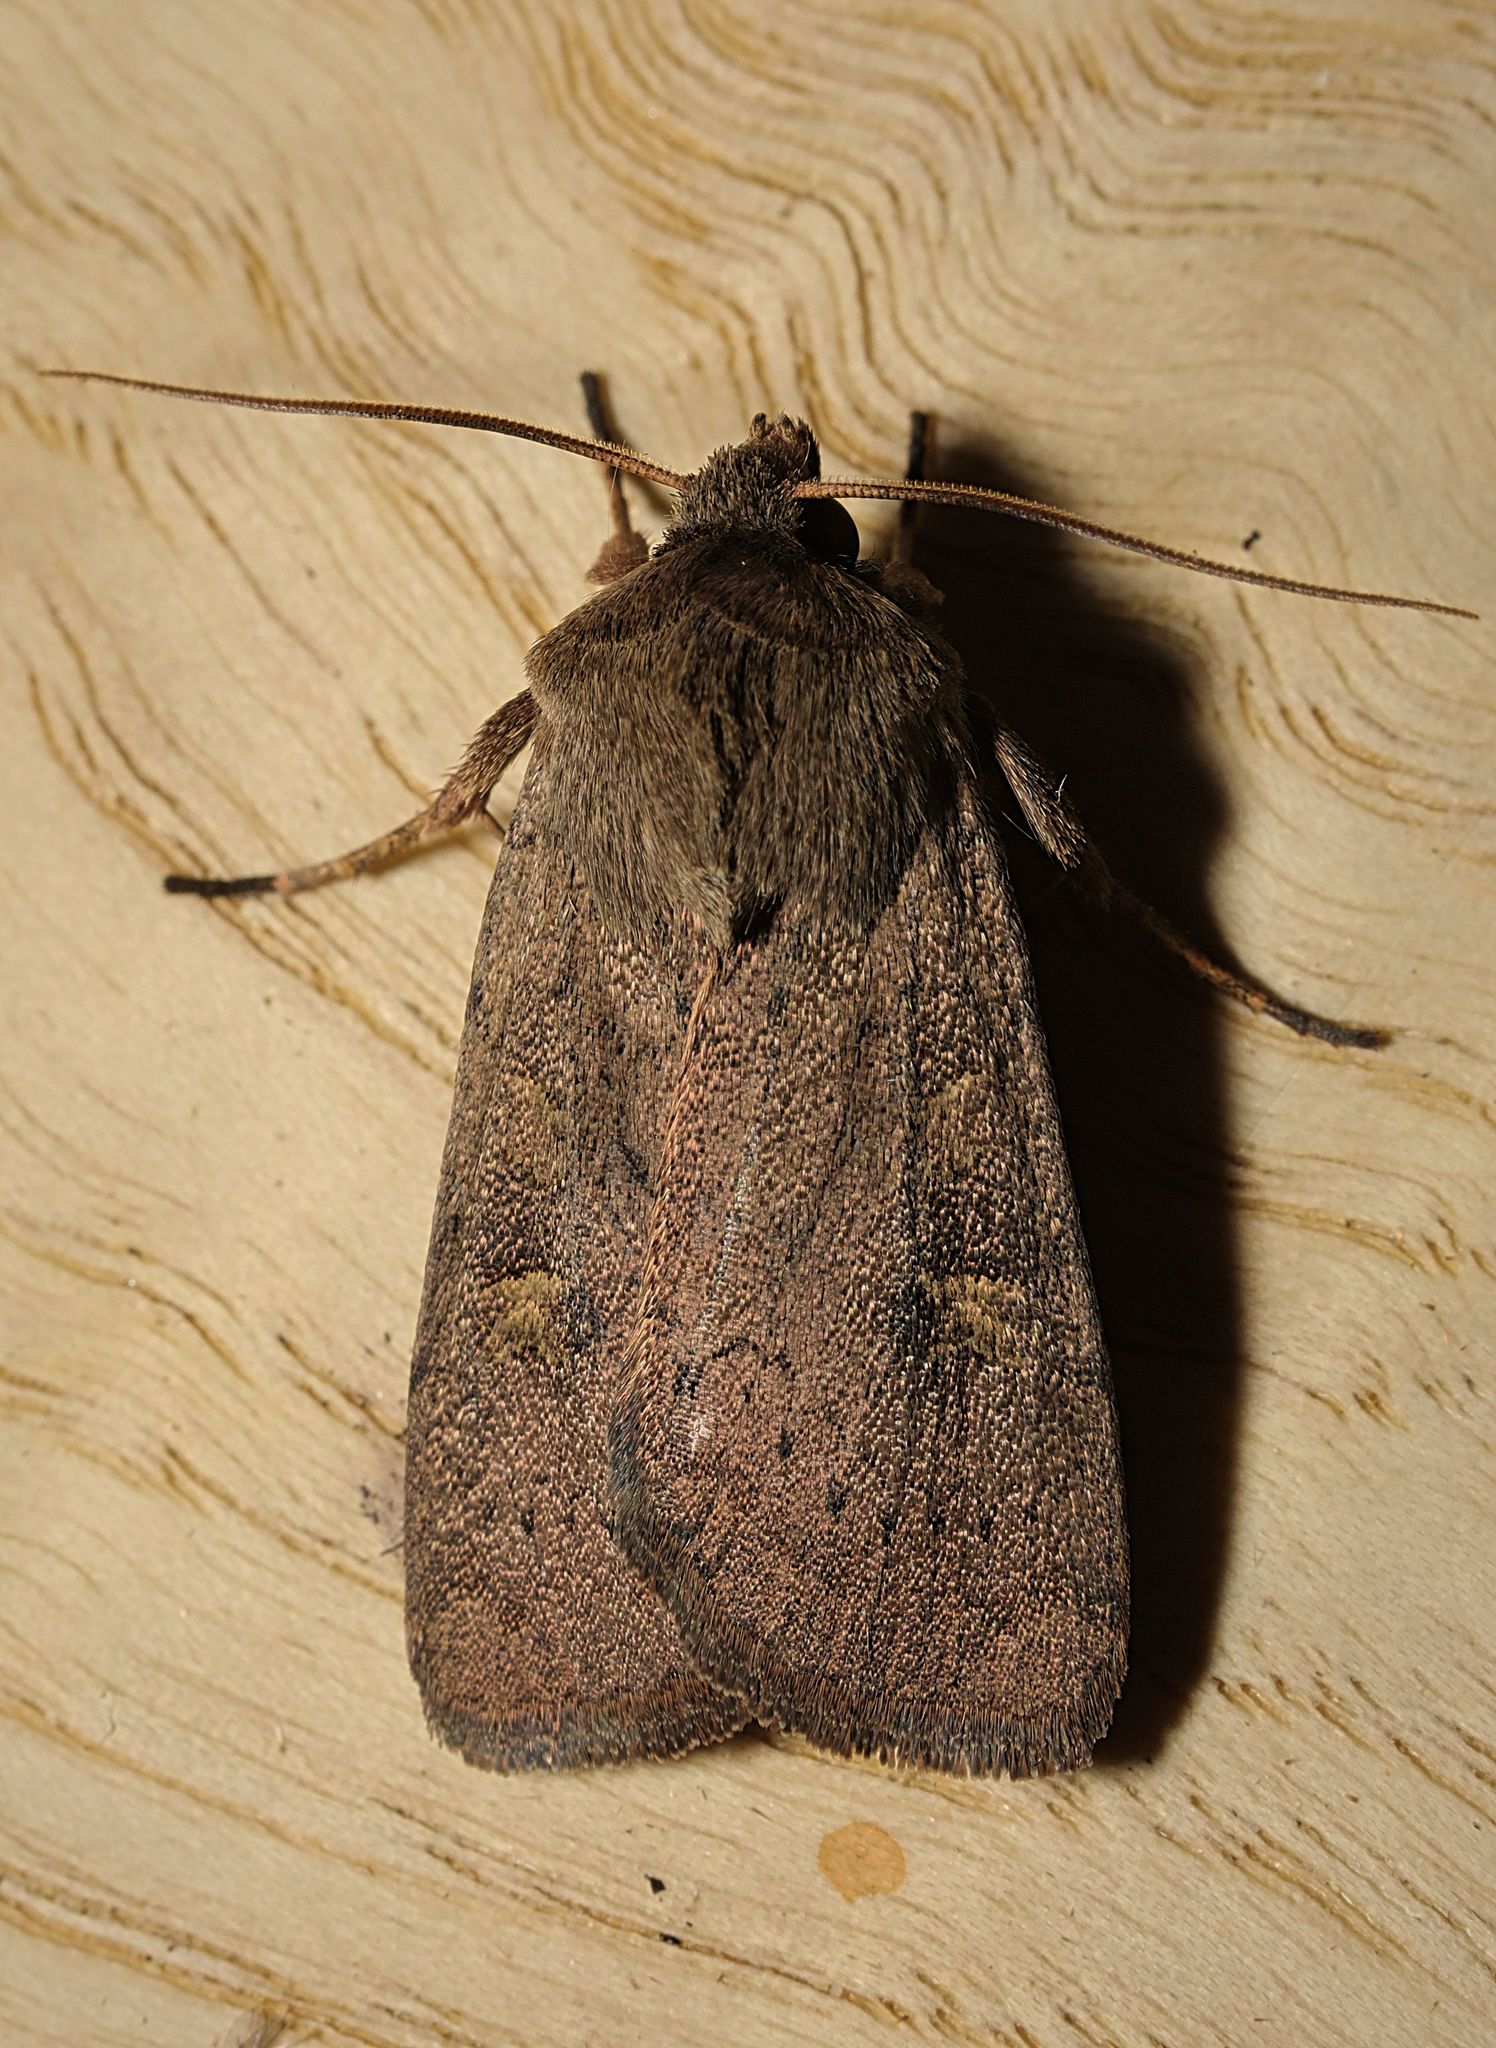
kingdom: Animalia
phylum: Arthropoda
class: Insecta
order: Lepidoptera
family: Noctuidae
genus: Xestia
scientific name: Xestia xanthographa
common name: Square-spot rustic
